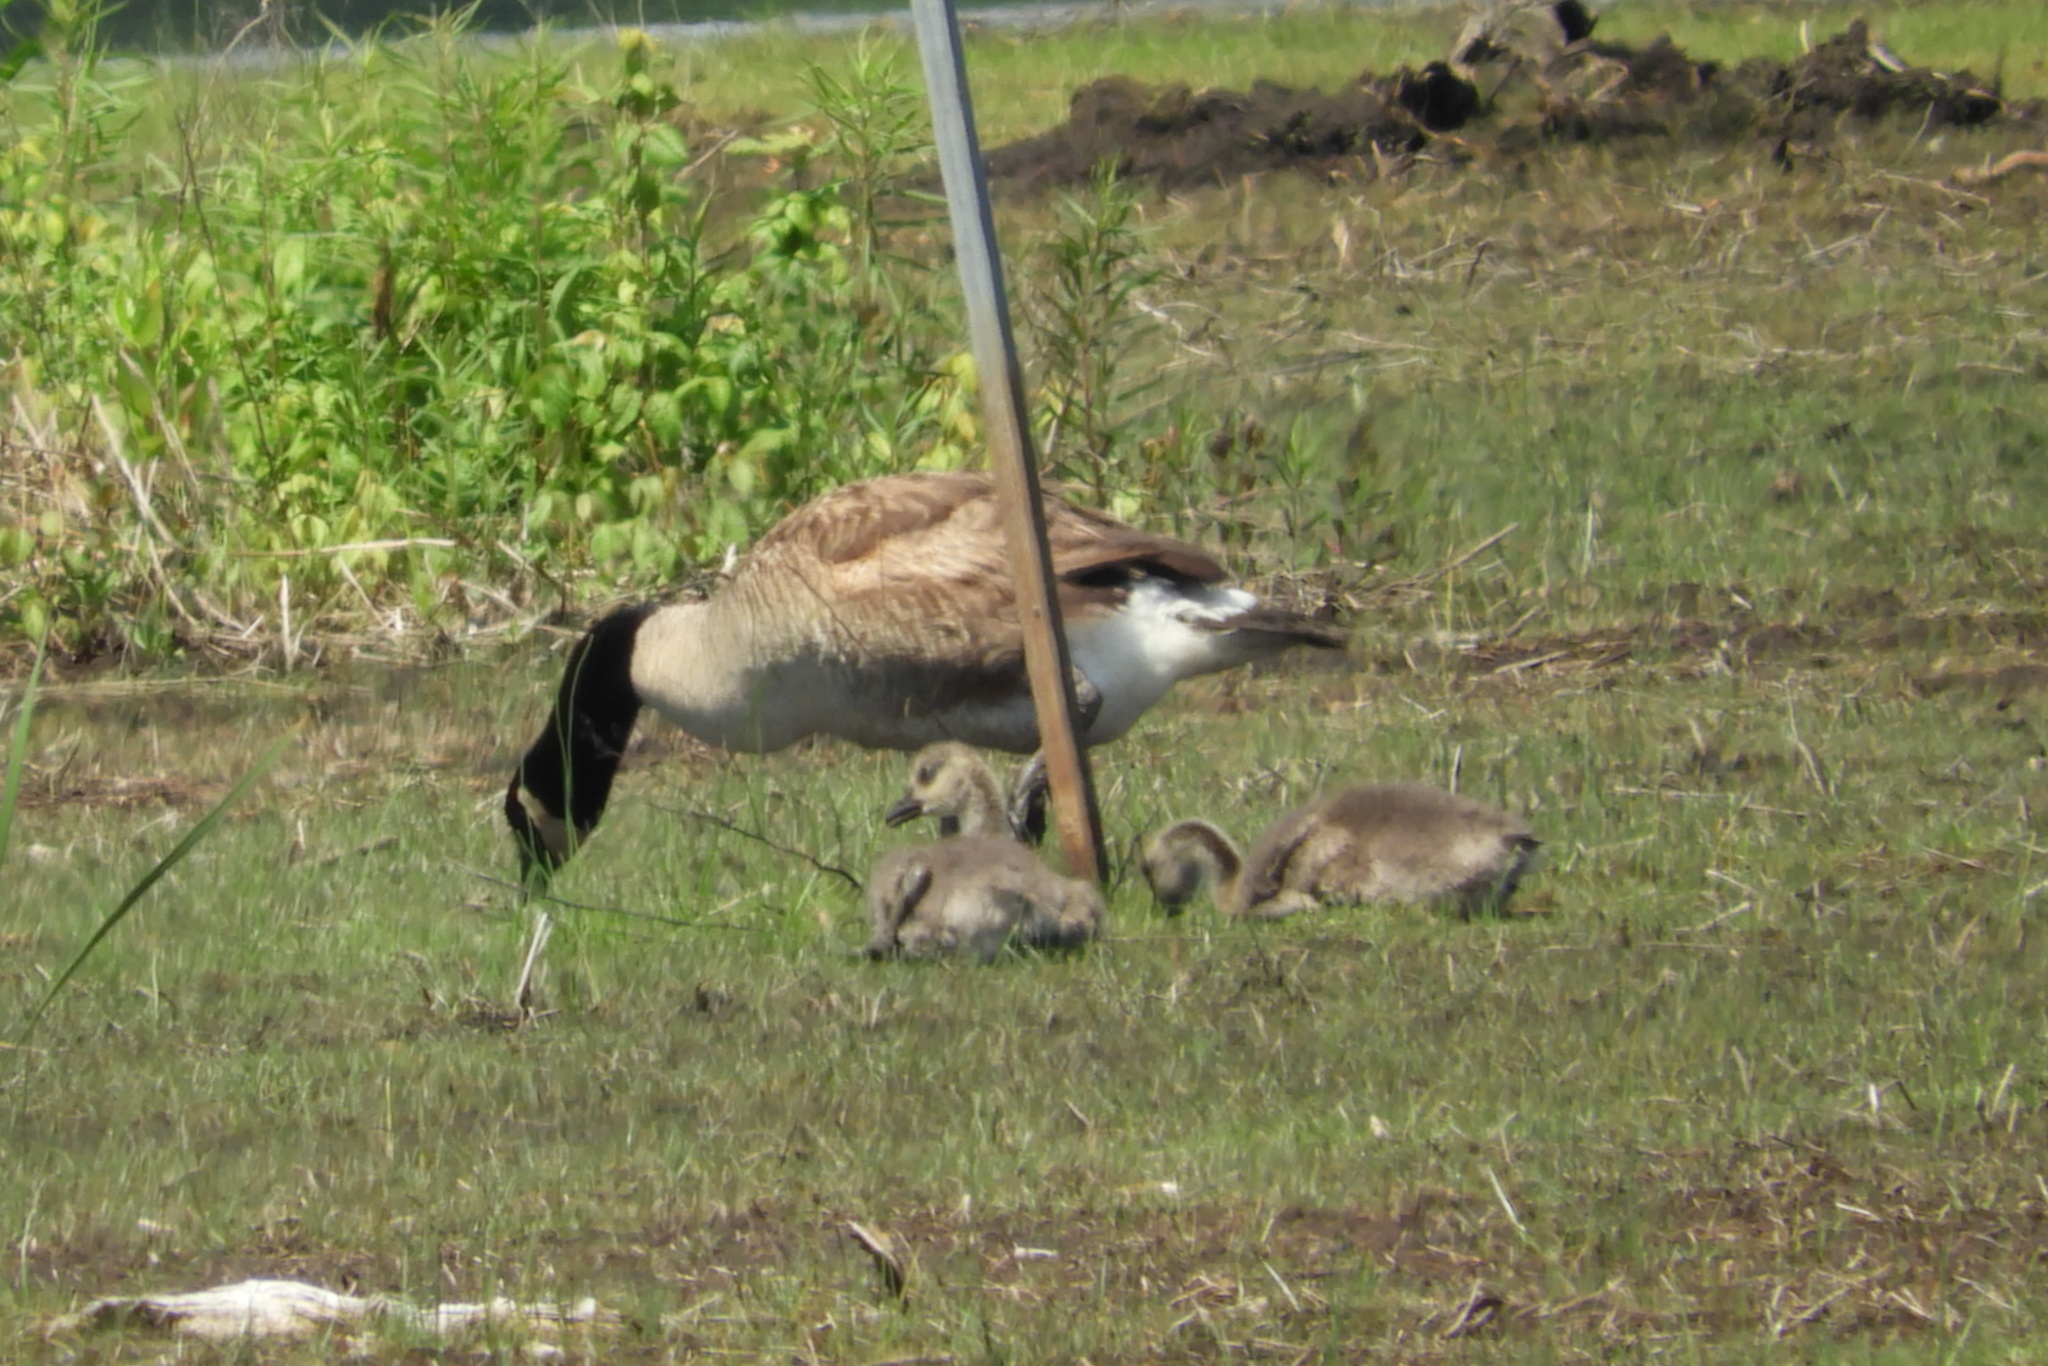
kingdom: Animalia
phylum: Chordata
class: Aves
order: Anseriformes
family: Anatidae
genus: Branta
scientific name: Branta canadensis
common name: Canada goose
